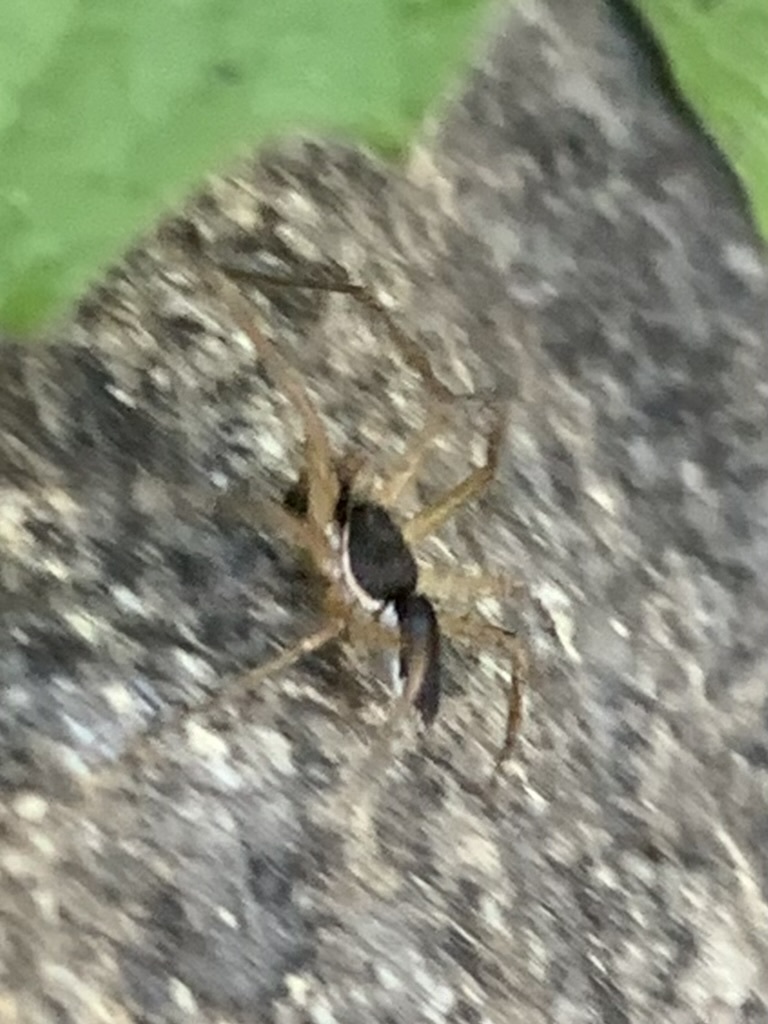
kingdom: Animalia
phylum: Arthropoda
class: Arachnida
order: Araneae
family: Philodromidae
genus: Philodromus
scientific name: Philodromus dispar
